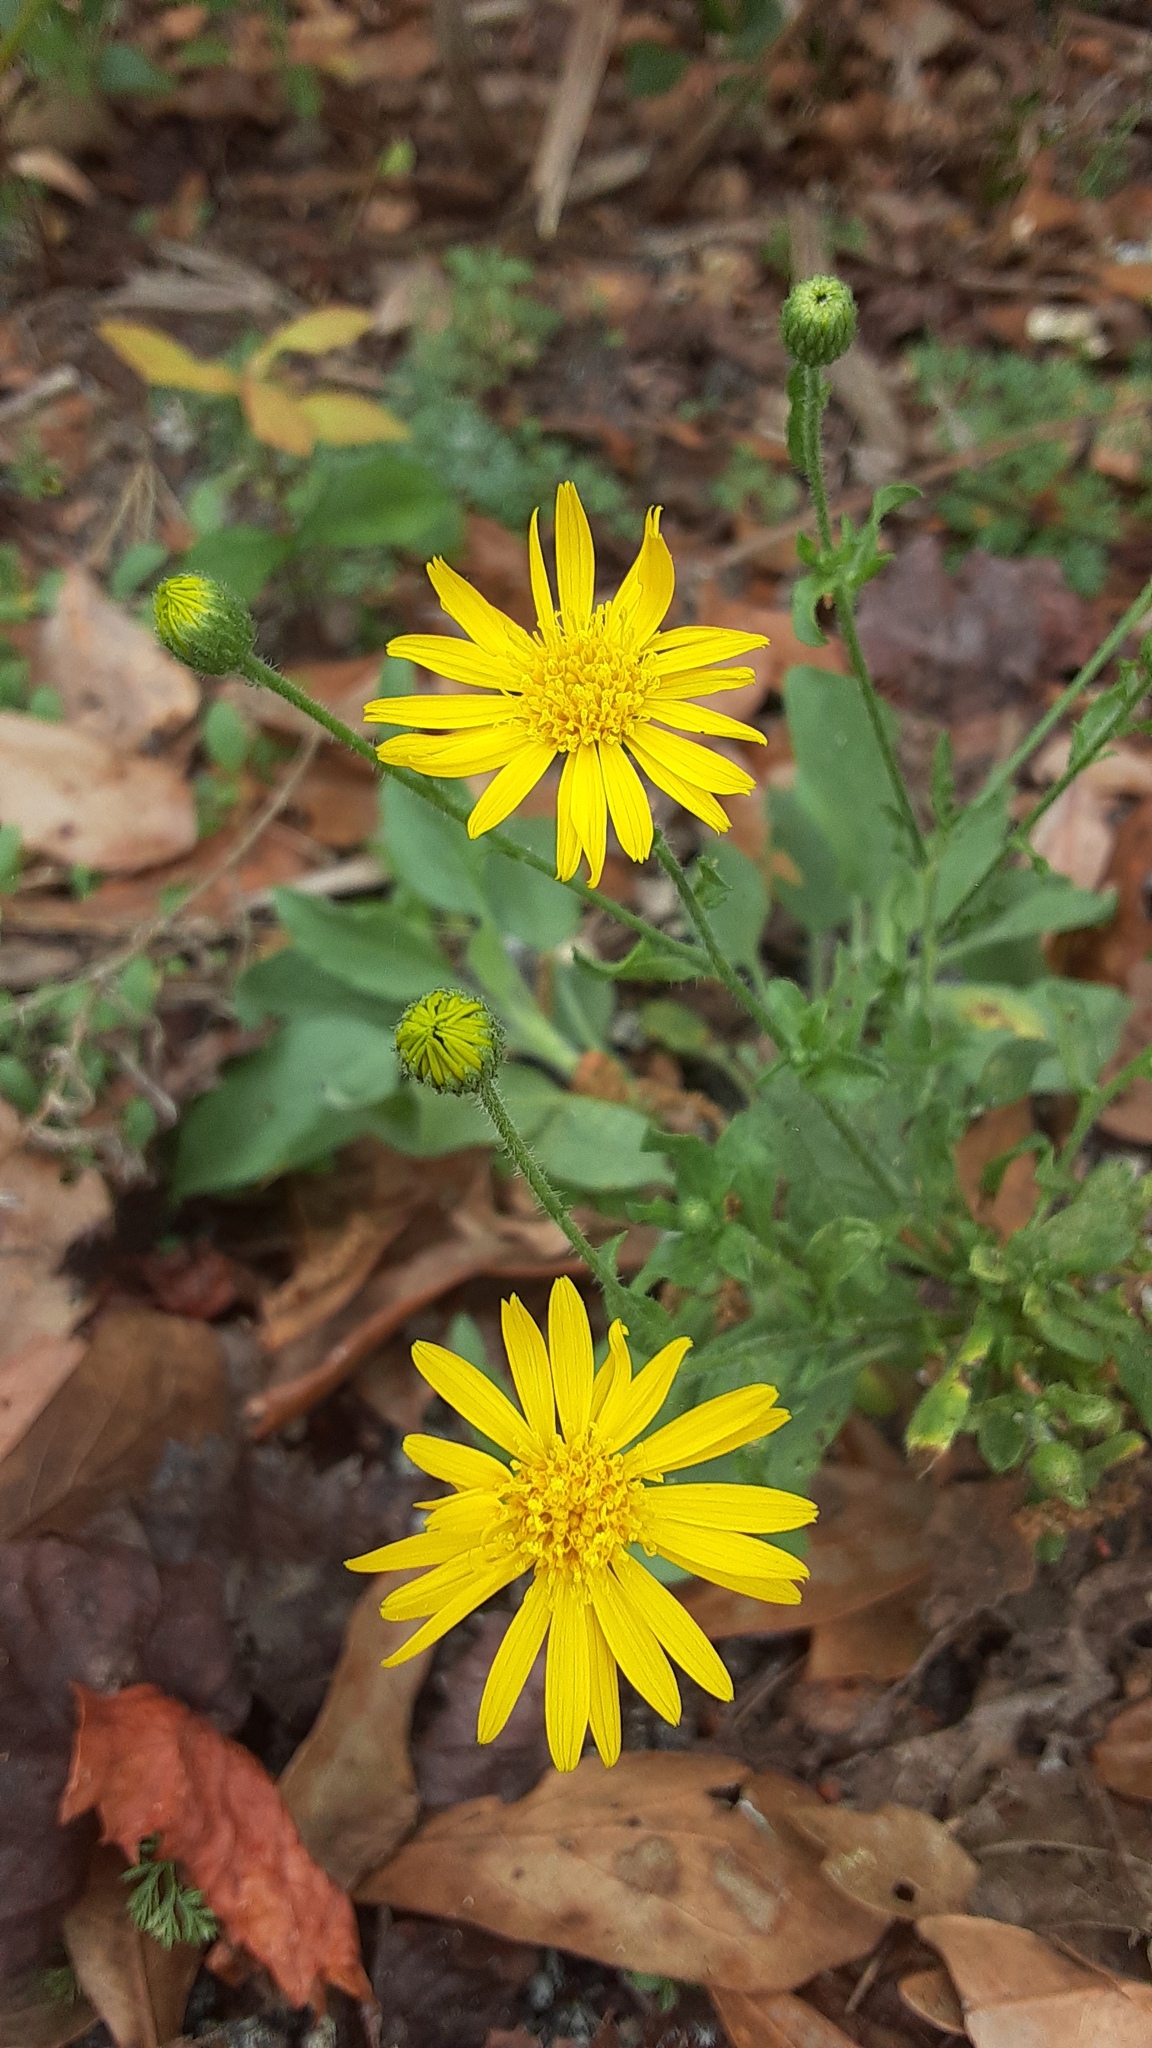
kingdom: Plantae
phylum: Tracheophyta
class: Magnoliopsida
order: Asterales
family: Asteraceae
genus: Heterotheca
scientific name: Heterotheca subaxillaris
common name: Camphorweed
